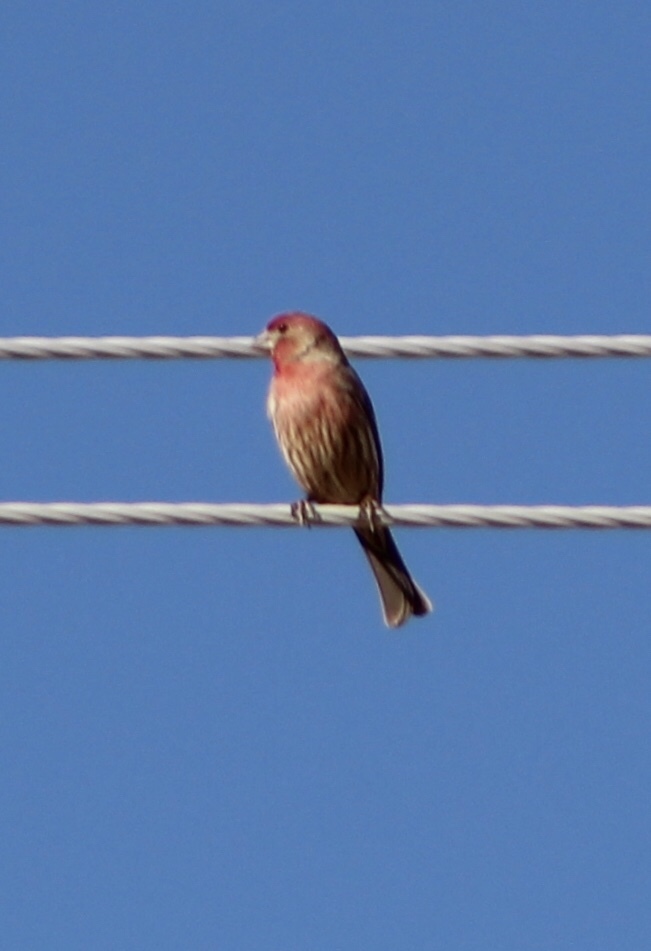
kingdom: Animalia
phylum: Chordata
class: Aves
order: Passeriformes
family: Fringillidae
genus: Haemorhous
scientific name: Haemorhous mexicanus
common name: House finch
